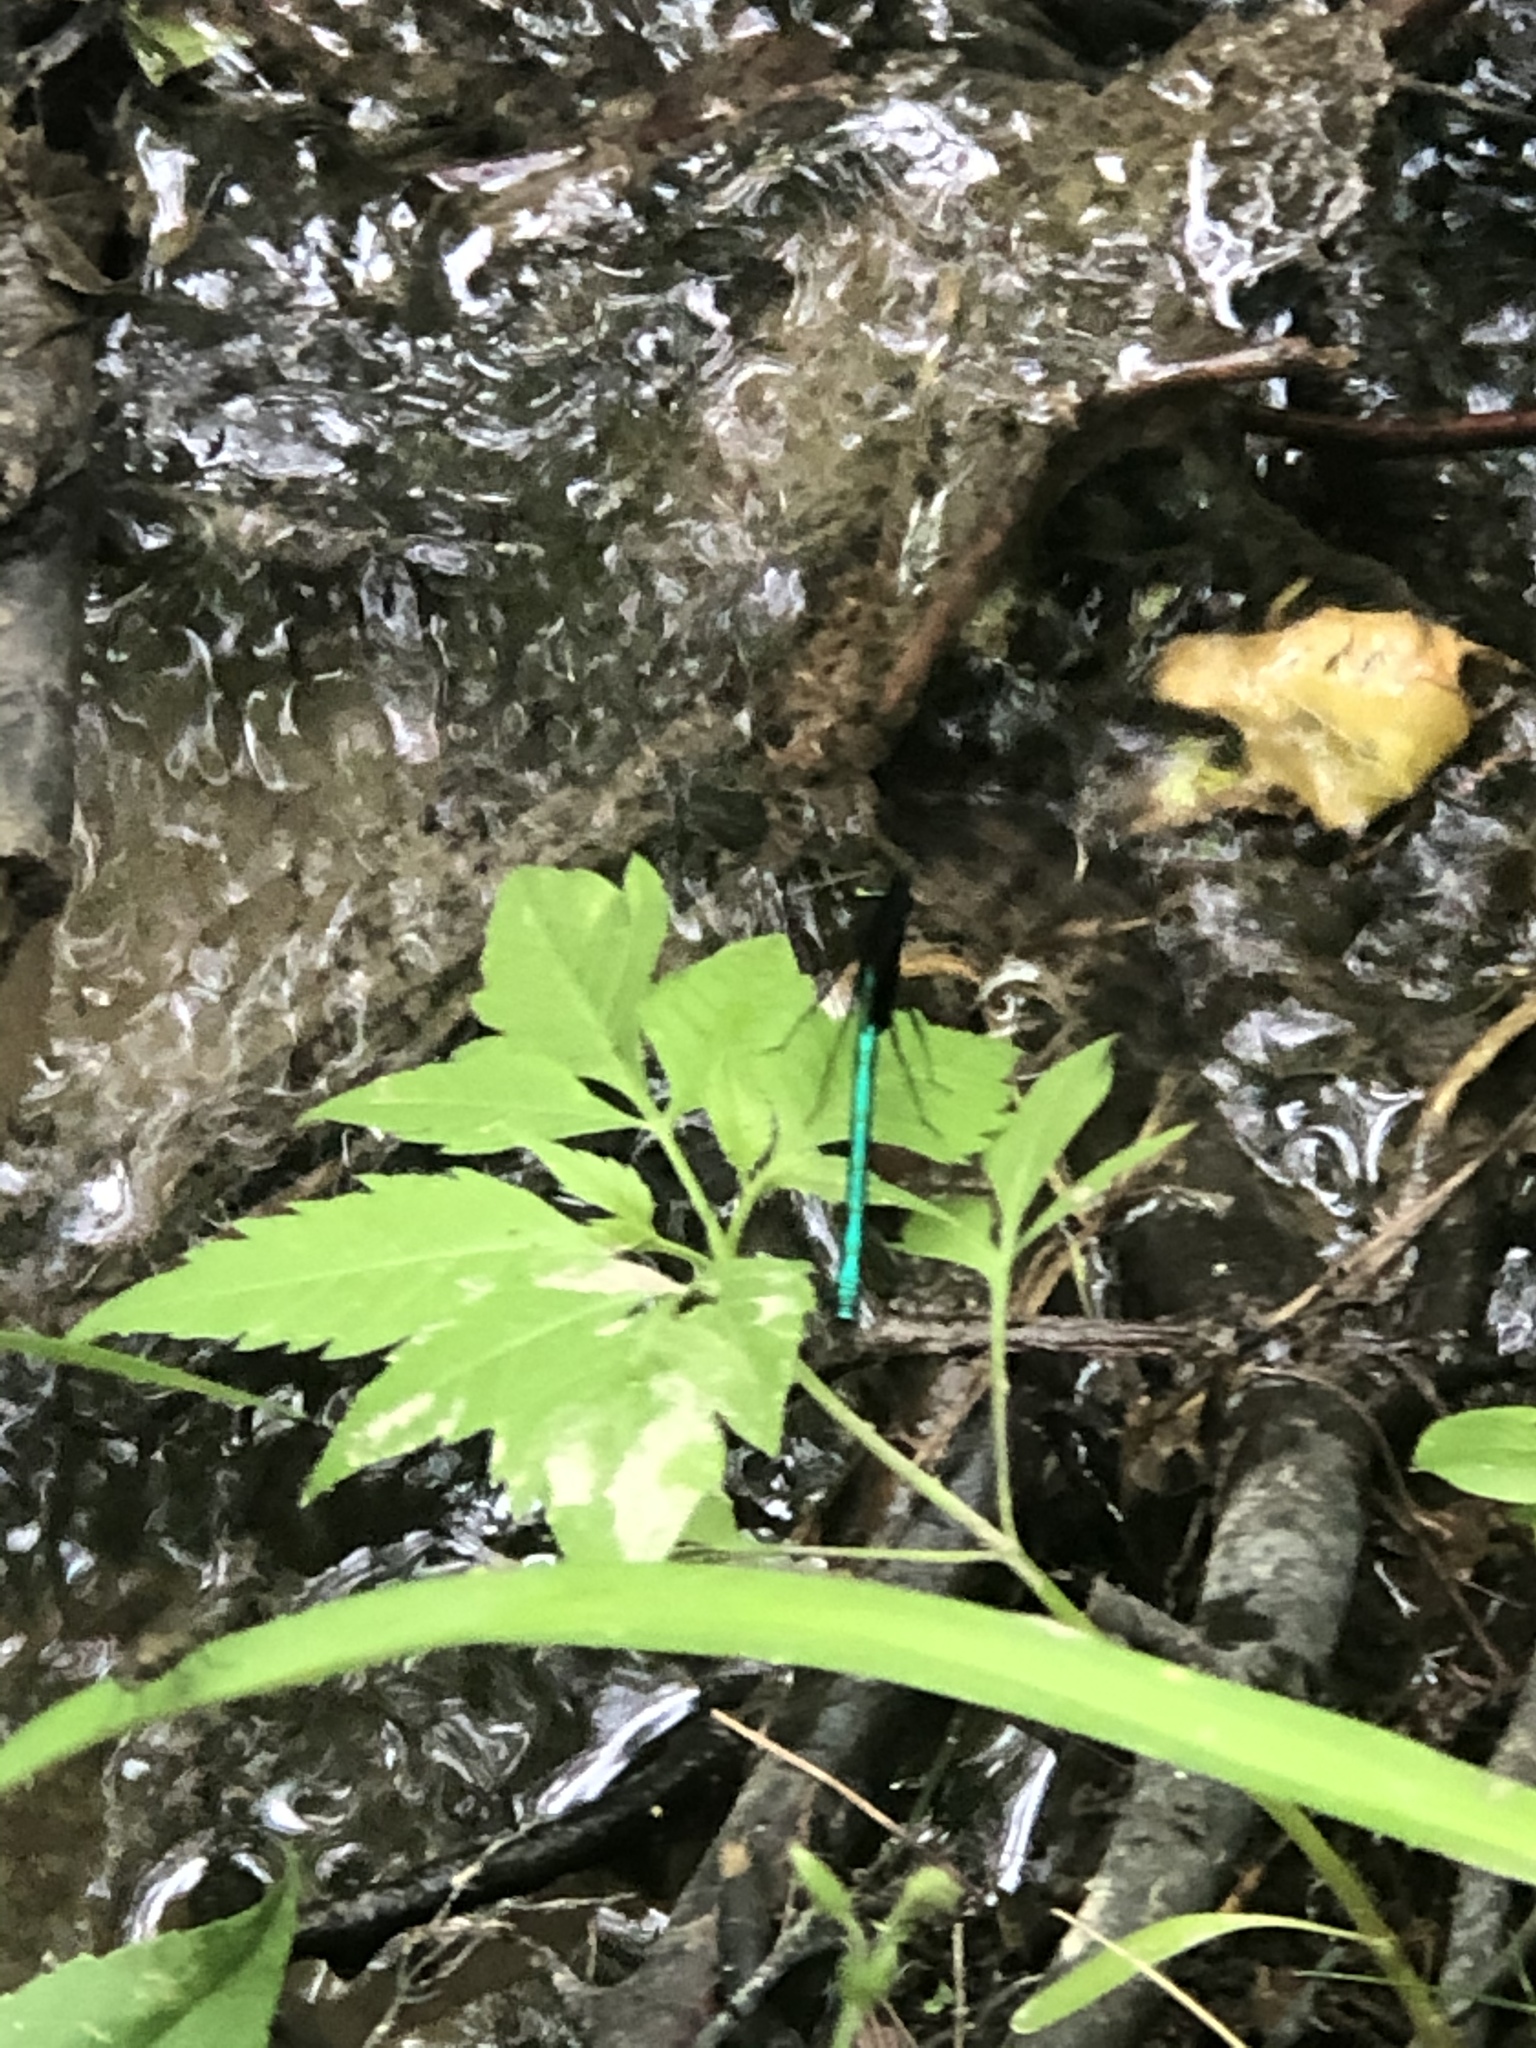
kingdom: Animalia
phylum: Arthropoda
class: Insecta
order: Odonata
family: Calopterygidae
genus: Calopteryx
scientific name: Calopteryx maculata
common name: Ebony jewelwing
